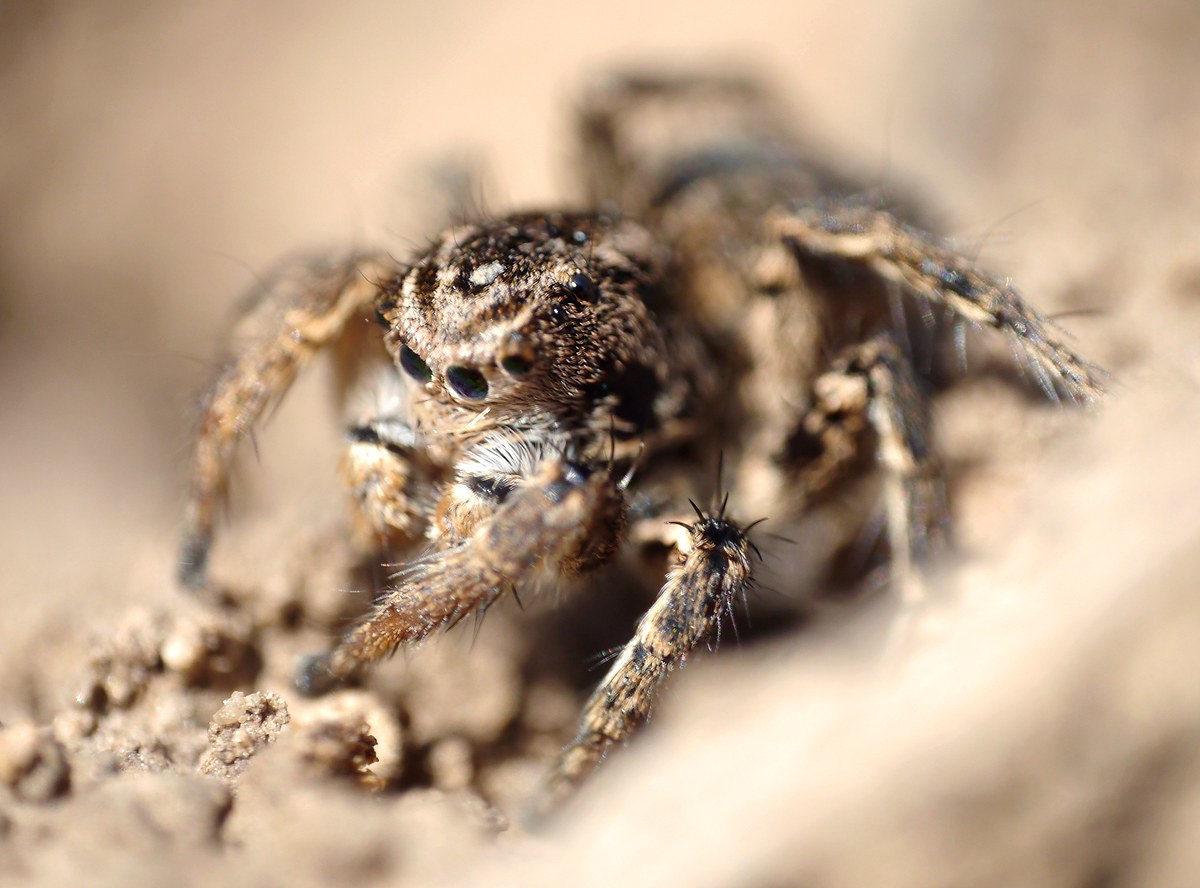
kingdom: Animalia
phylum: Arthropoda
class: Arachnida
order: Araneae
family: Salticidae
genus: Aelurillus
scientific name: Aelurillus v-insignitus
